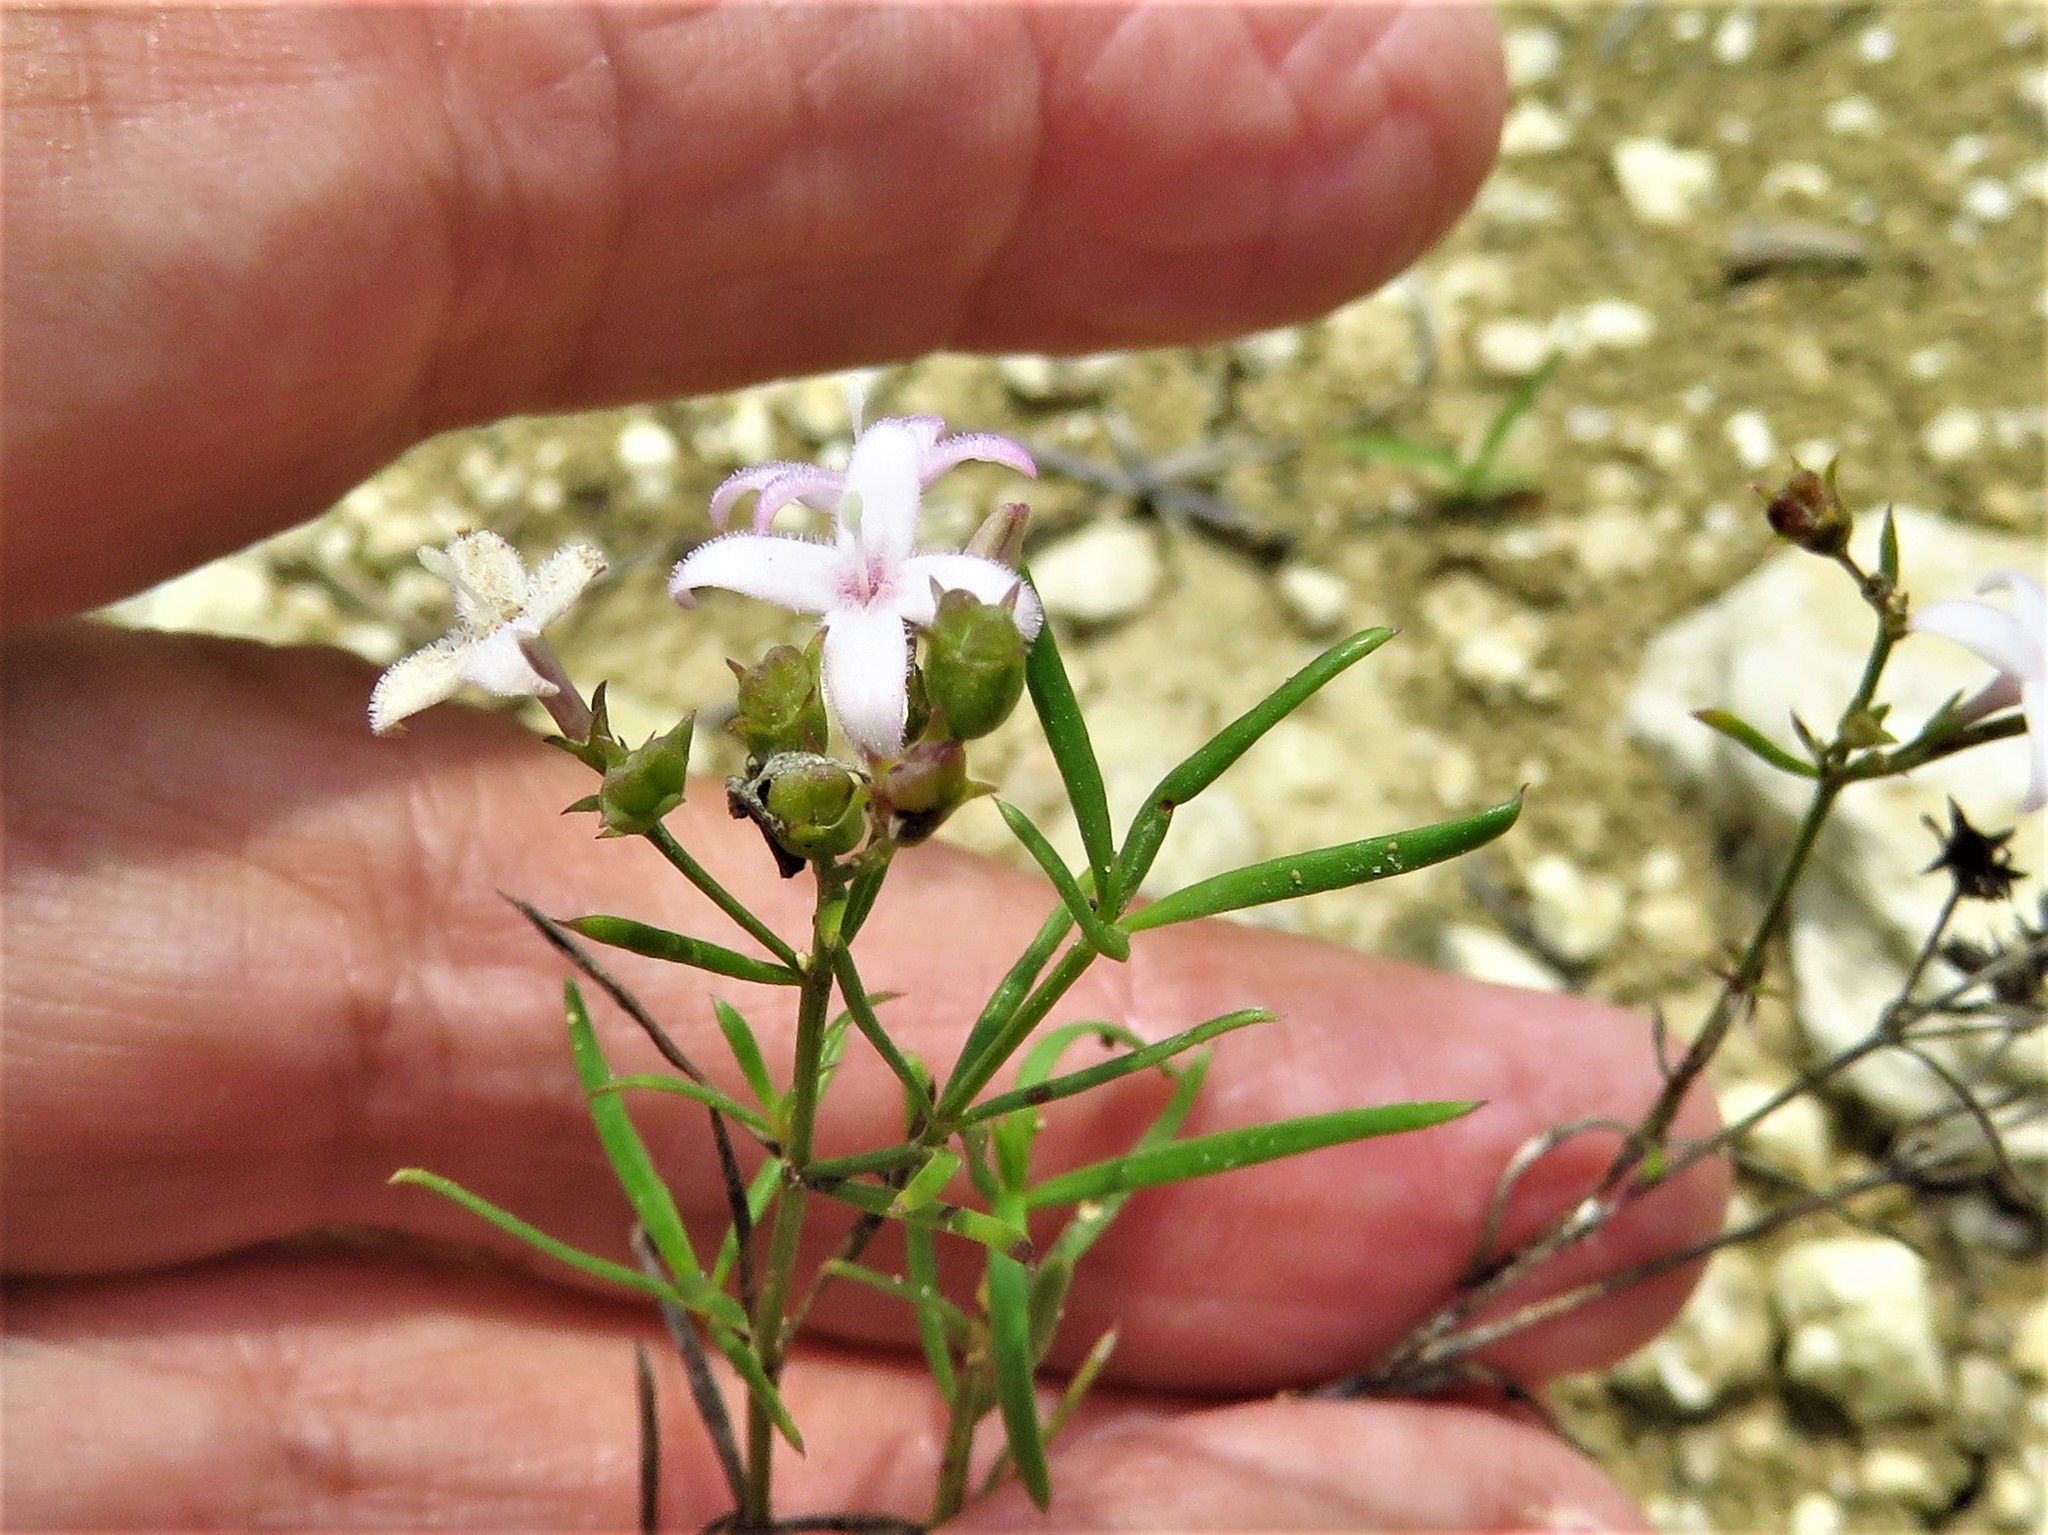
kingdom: Plantae
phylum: Tracheophyta
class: Magnoliopsida
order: Gentianales
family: Rubiaceae
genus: Stenaria
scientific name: Stenaria nigricans
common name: Diamondflowers
